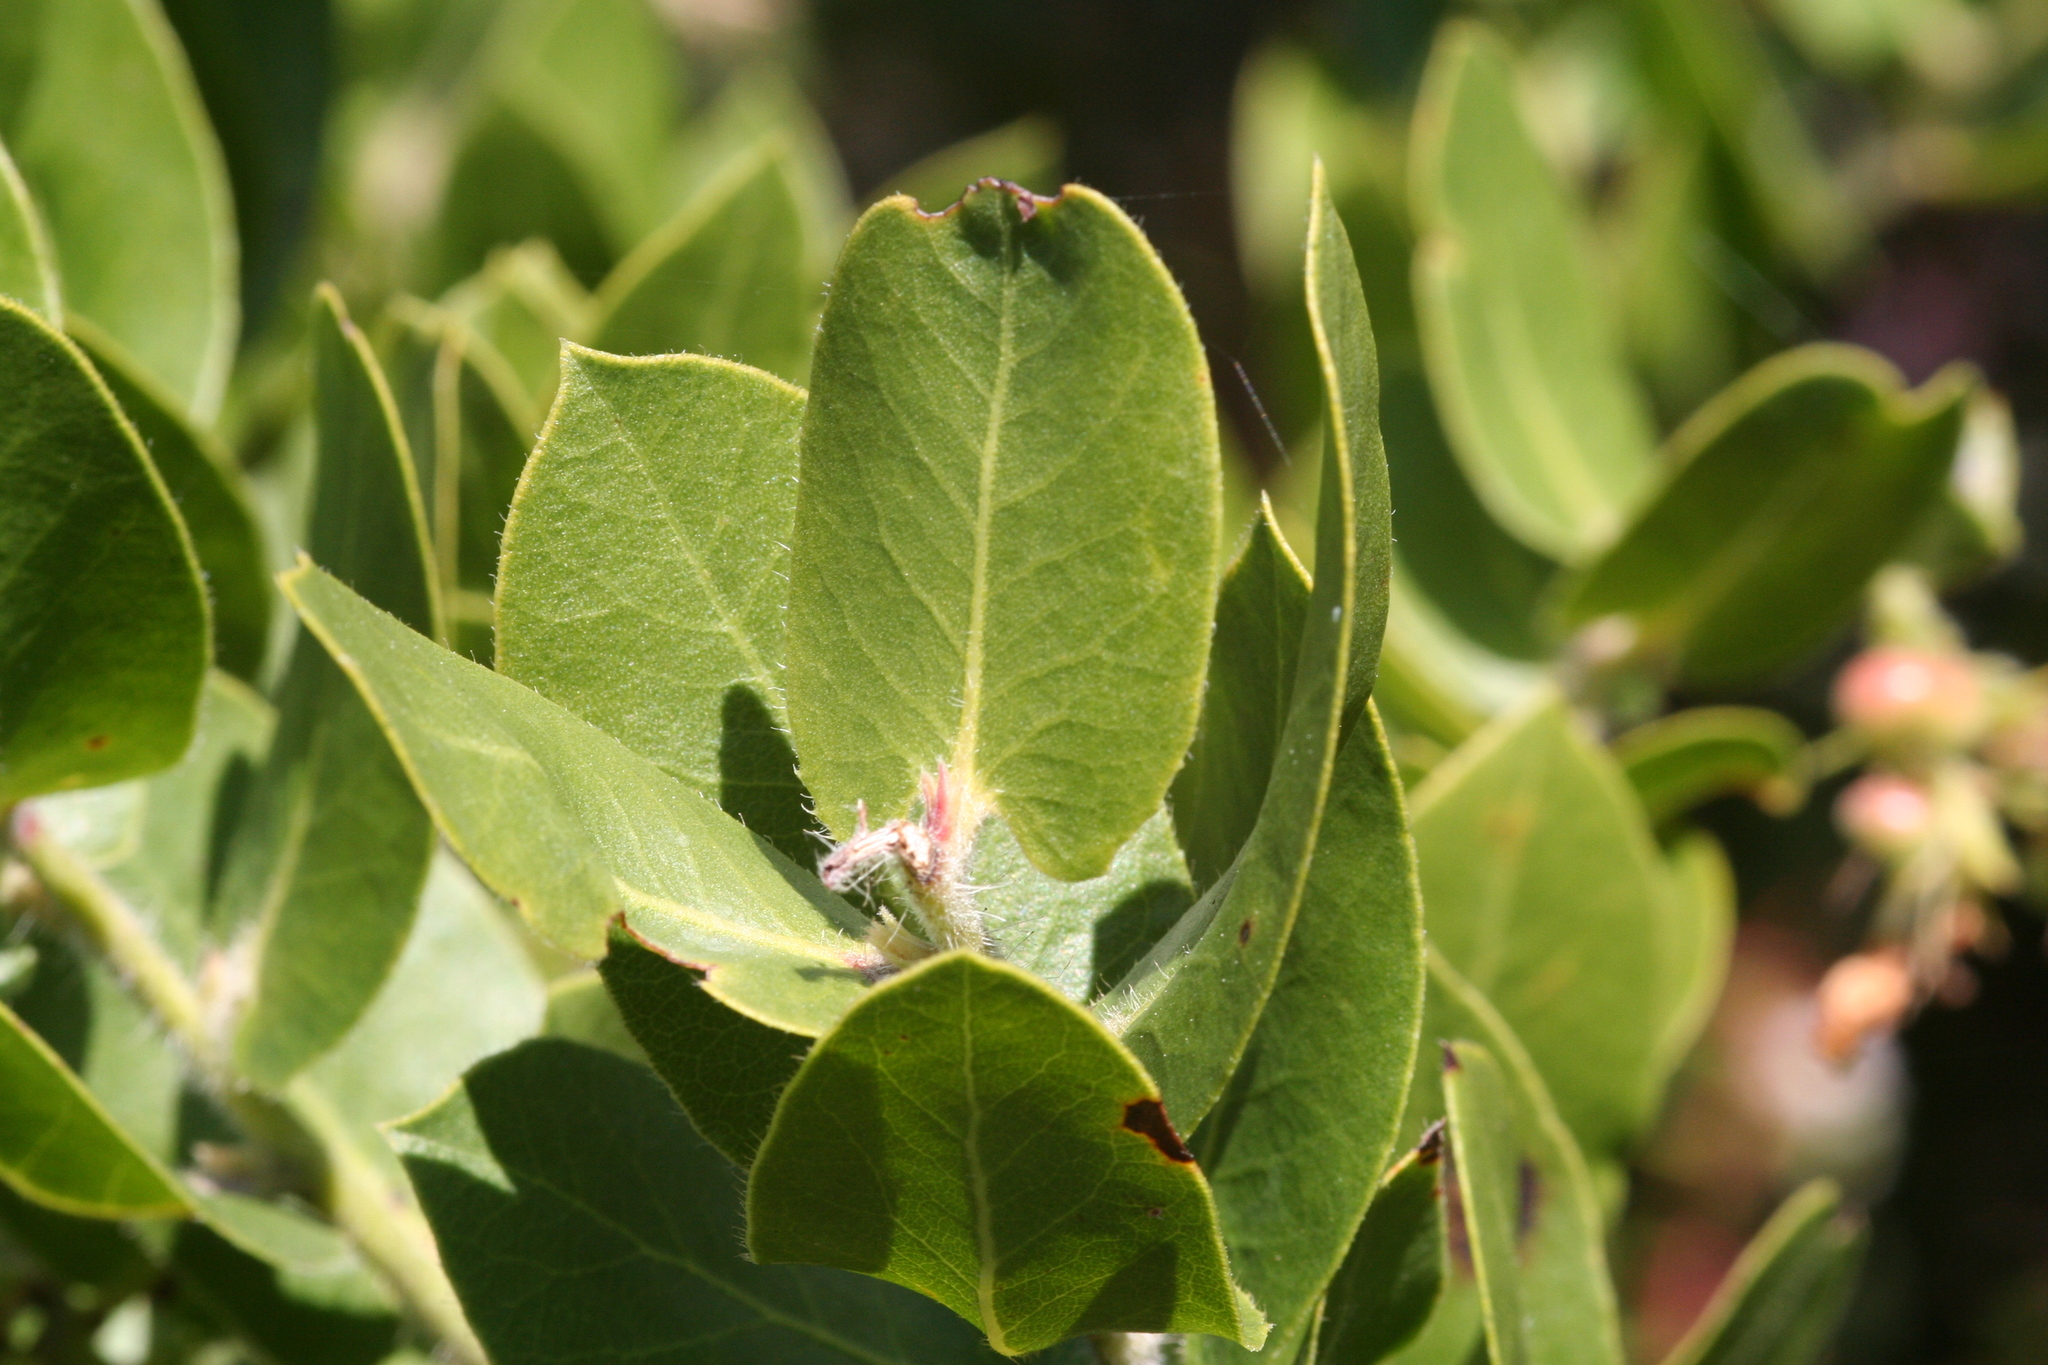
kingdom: Plantae
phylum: Tracheophyta
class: Magnoliopsida
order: Ericales
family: Ericaceae
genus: Arctostaphylos
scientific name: Arctostaphylos montaraensis
